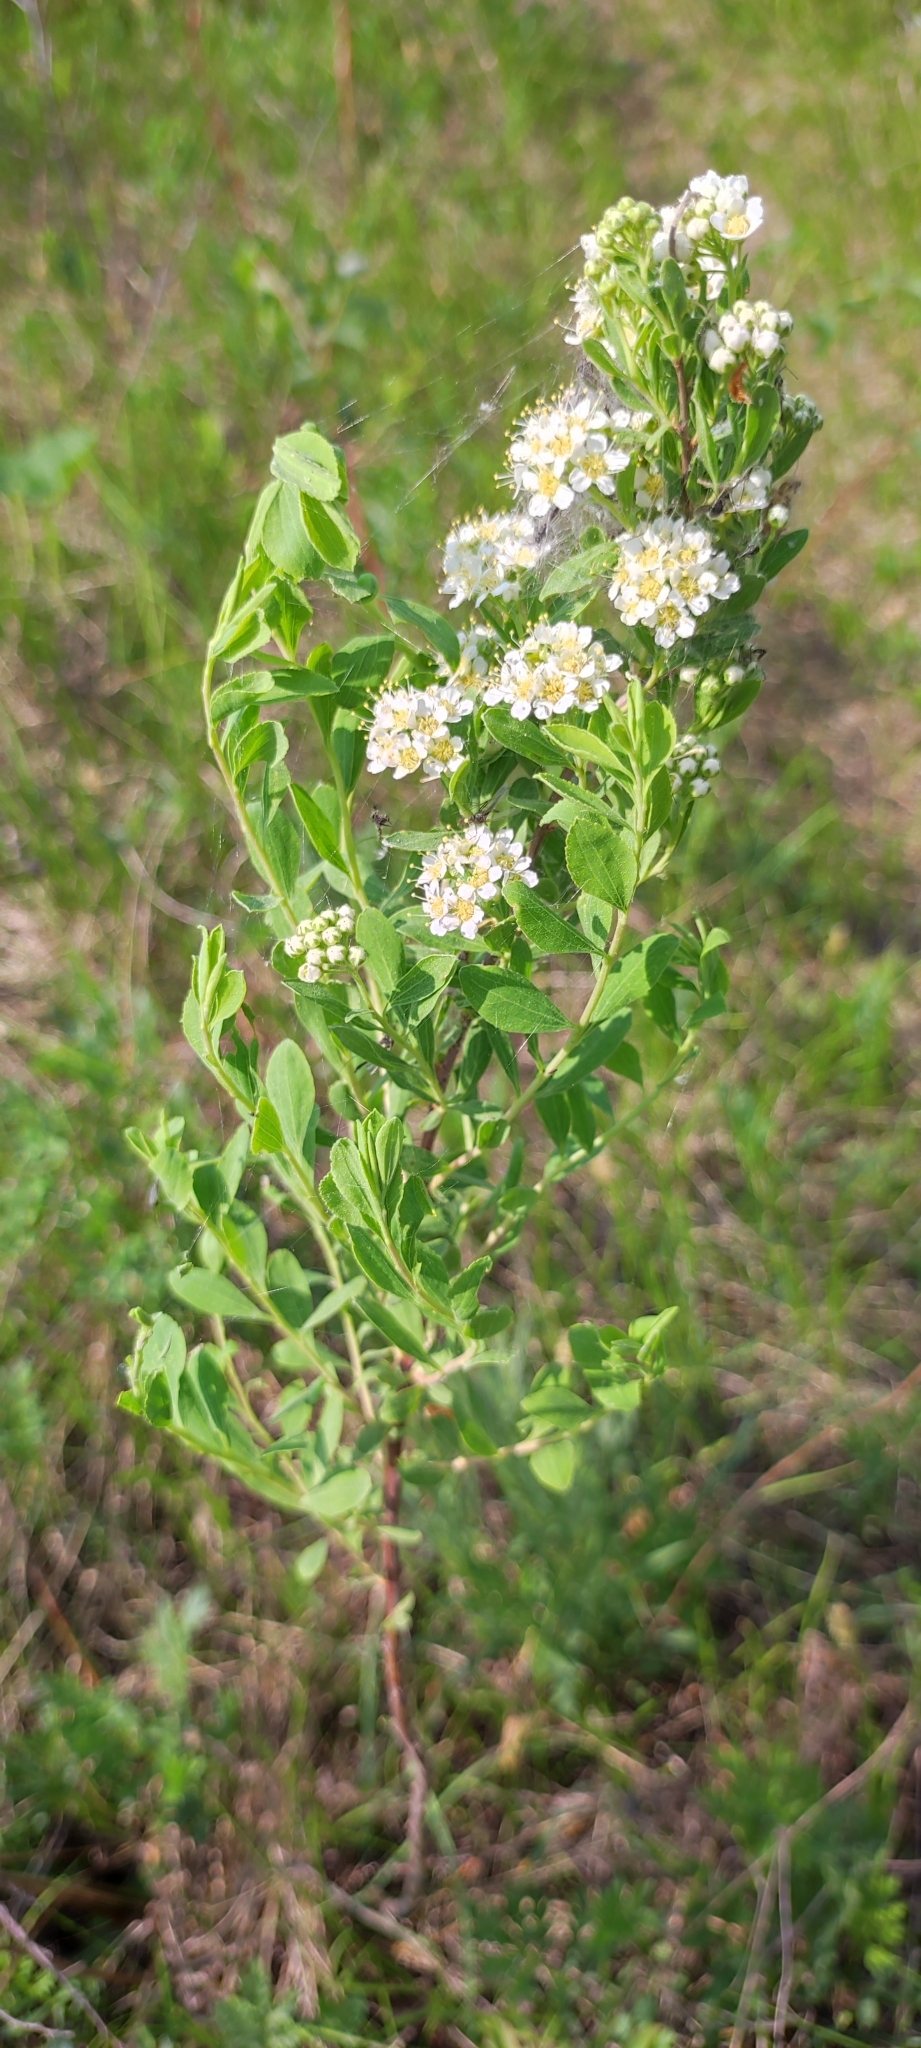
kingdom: Plantae
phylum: Tracheophyta
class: Magnoliopsida
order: Rosales
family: Rosaceae
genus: Spiraea
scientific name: Spiraea crenata
